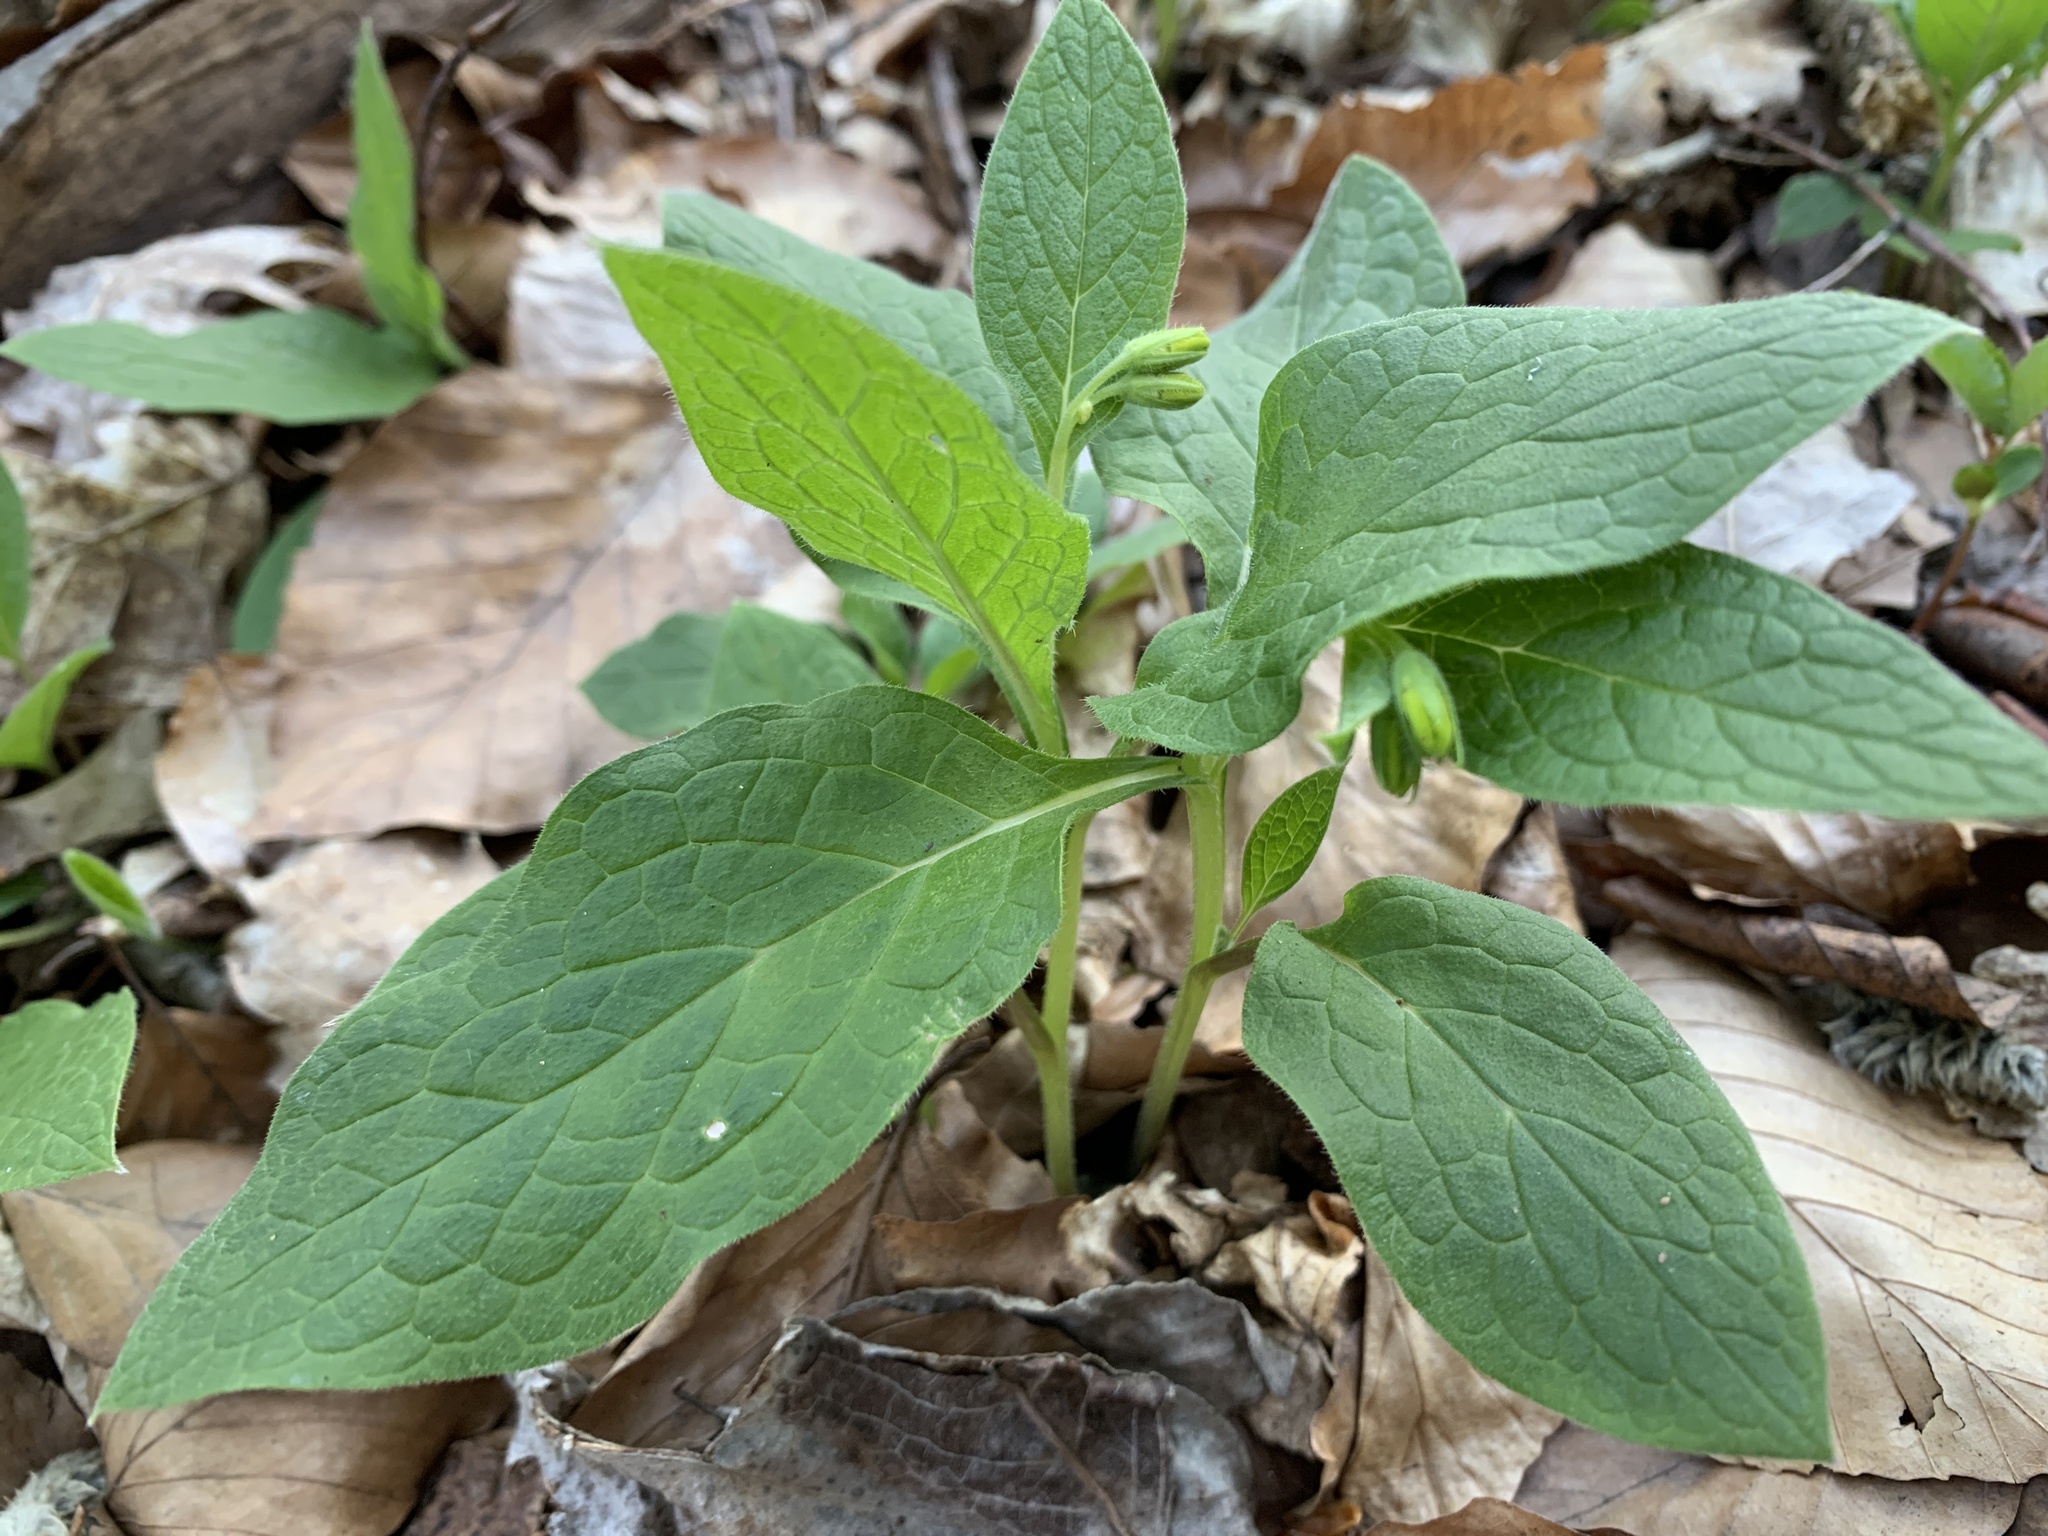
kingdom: Plantae
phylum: Tracheophyta
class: Magnoliopsida
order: Boraginales
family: Boraginaceae
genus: Symphytum
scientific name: Symphytum tuberosum
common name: Tuberous comfrey
